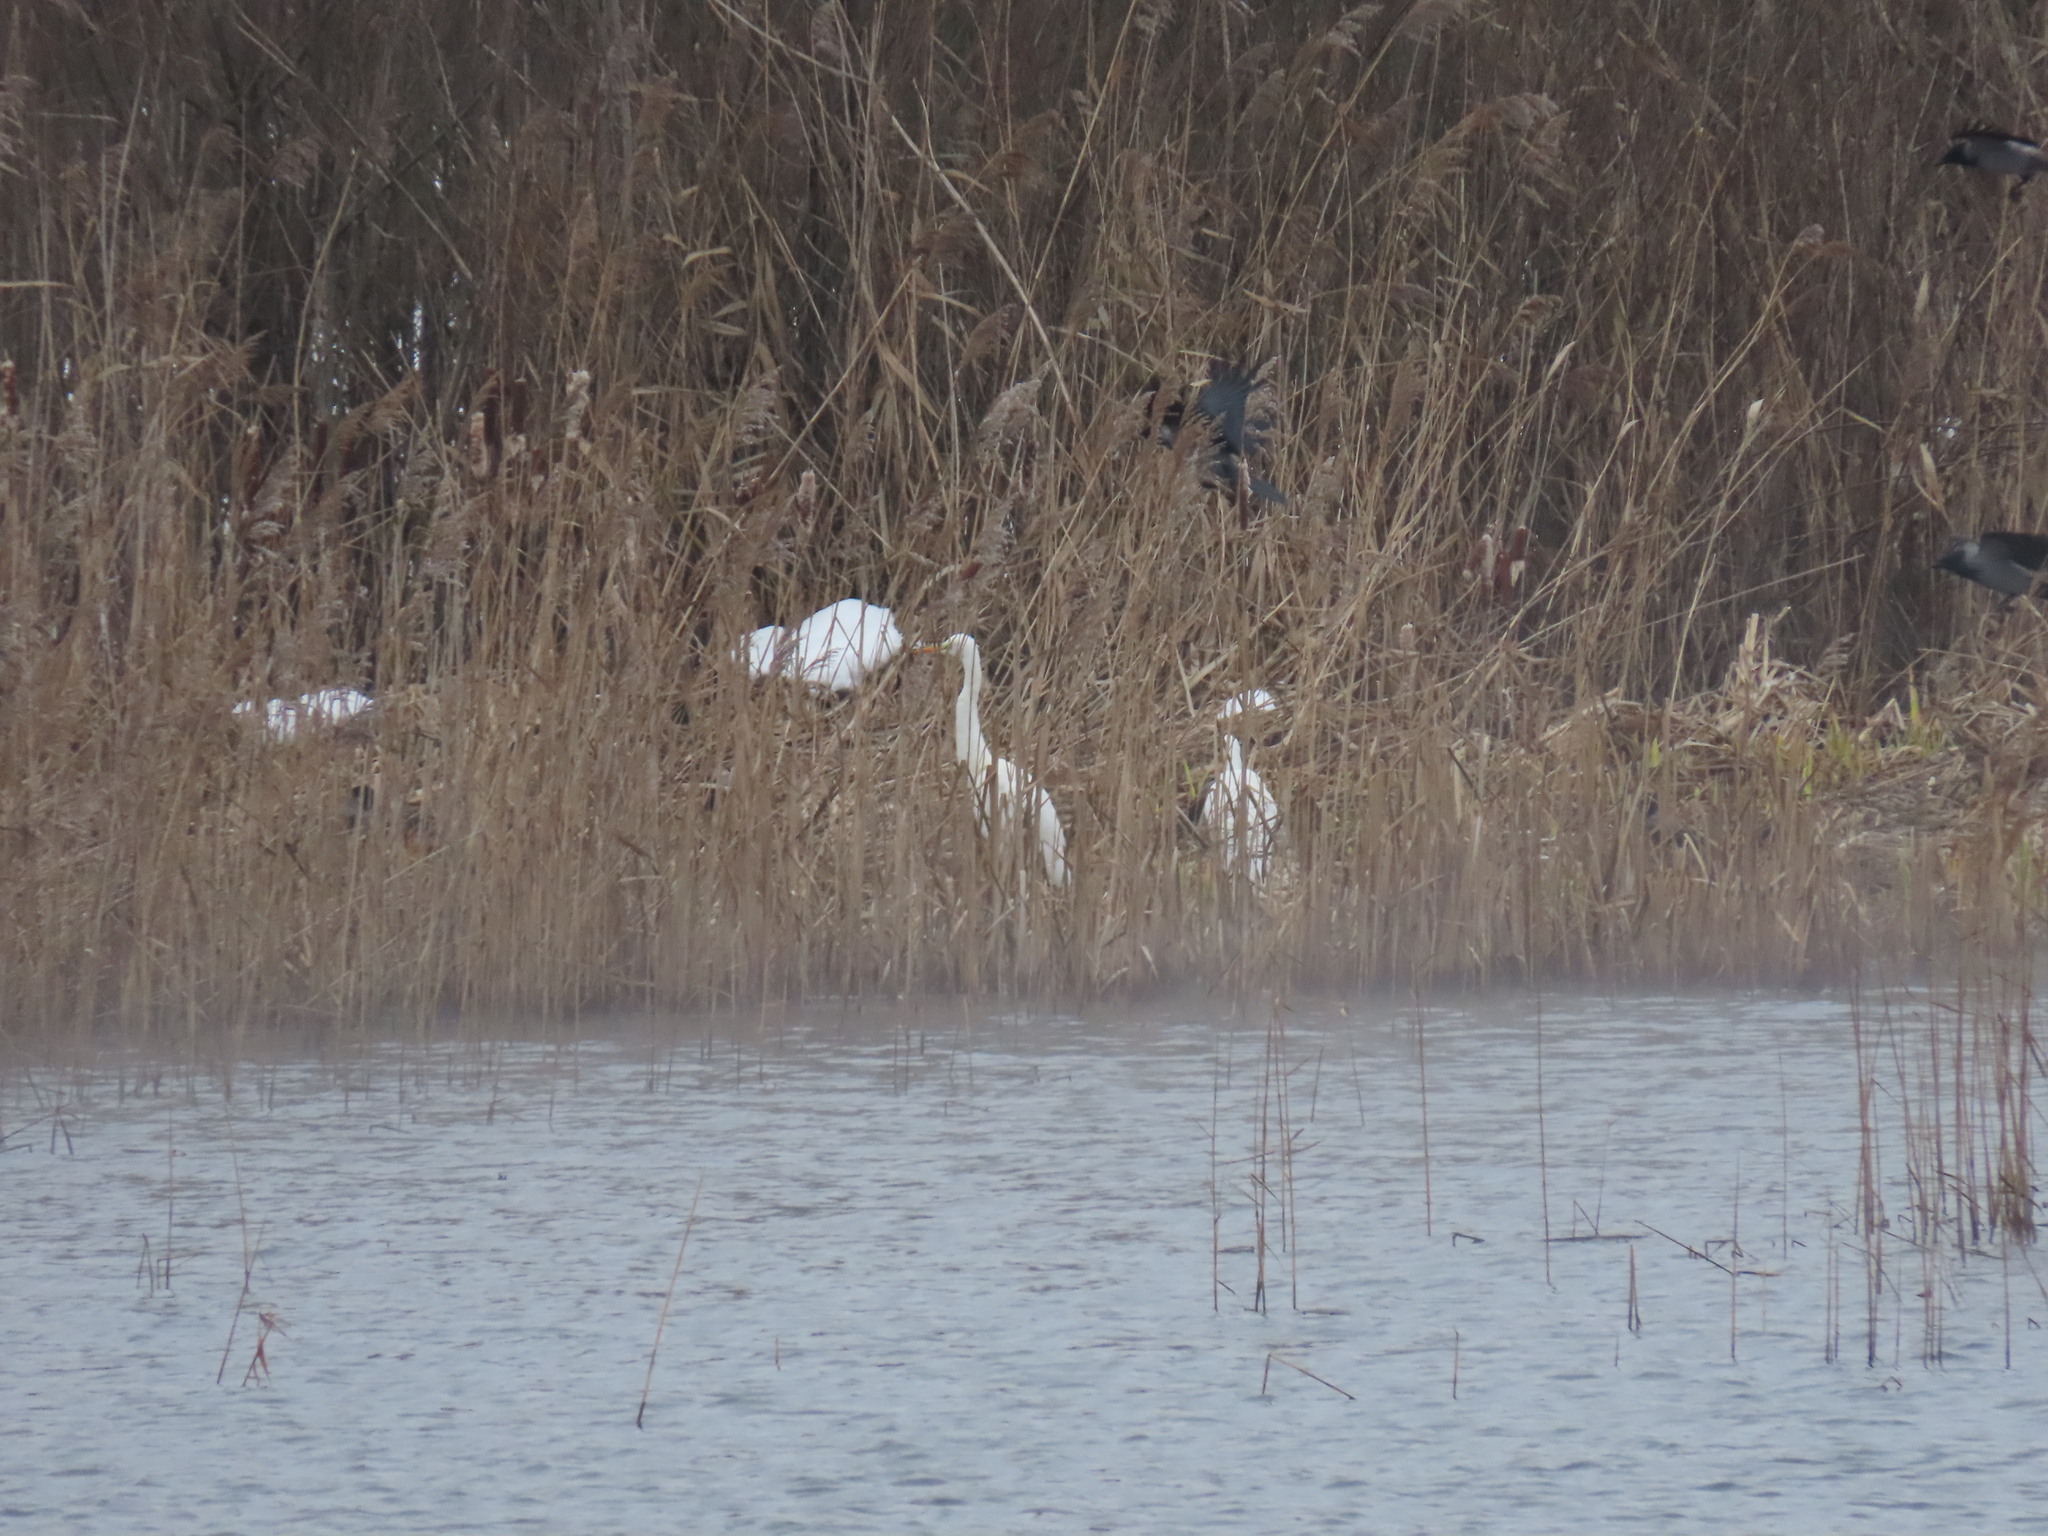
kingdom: Animalia
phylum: Chordata
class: Aves
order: Pelecaniformes
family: Ardeidae
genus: Ardea
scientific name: Ardea alba
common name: Great egret
